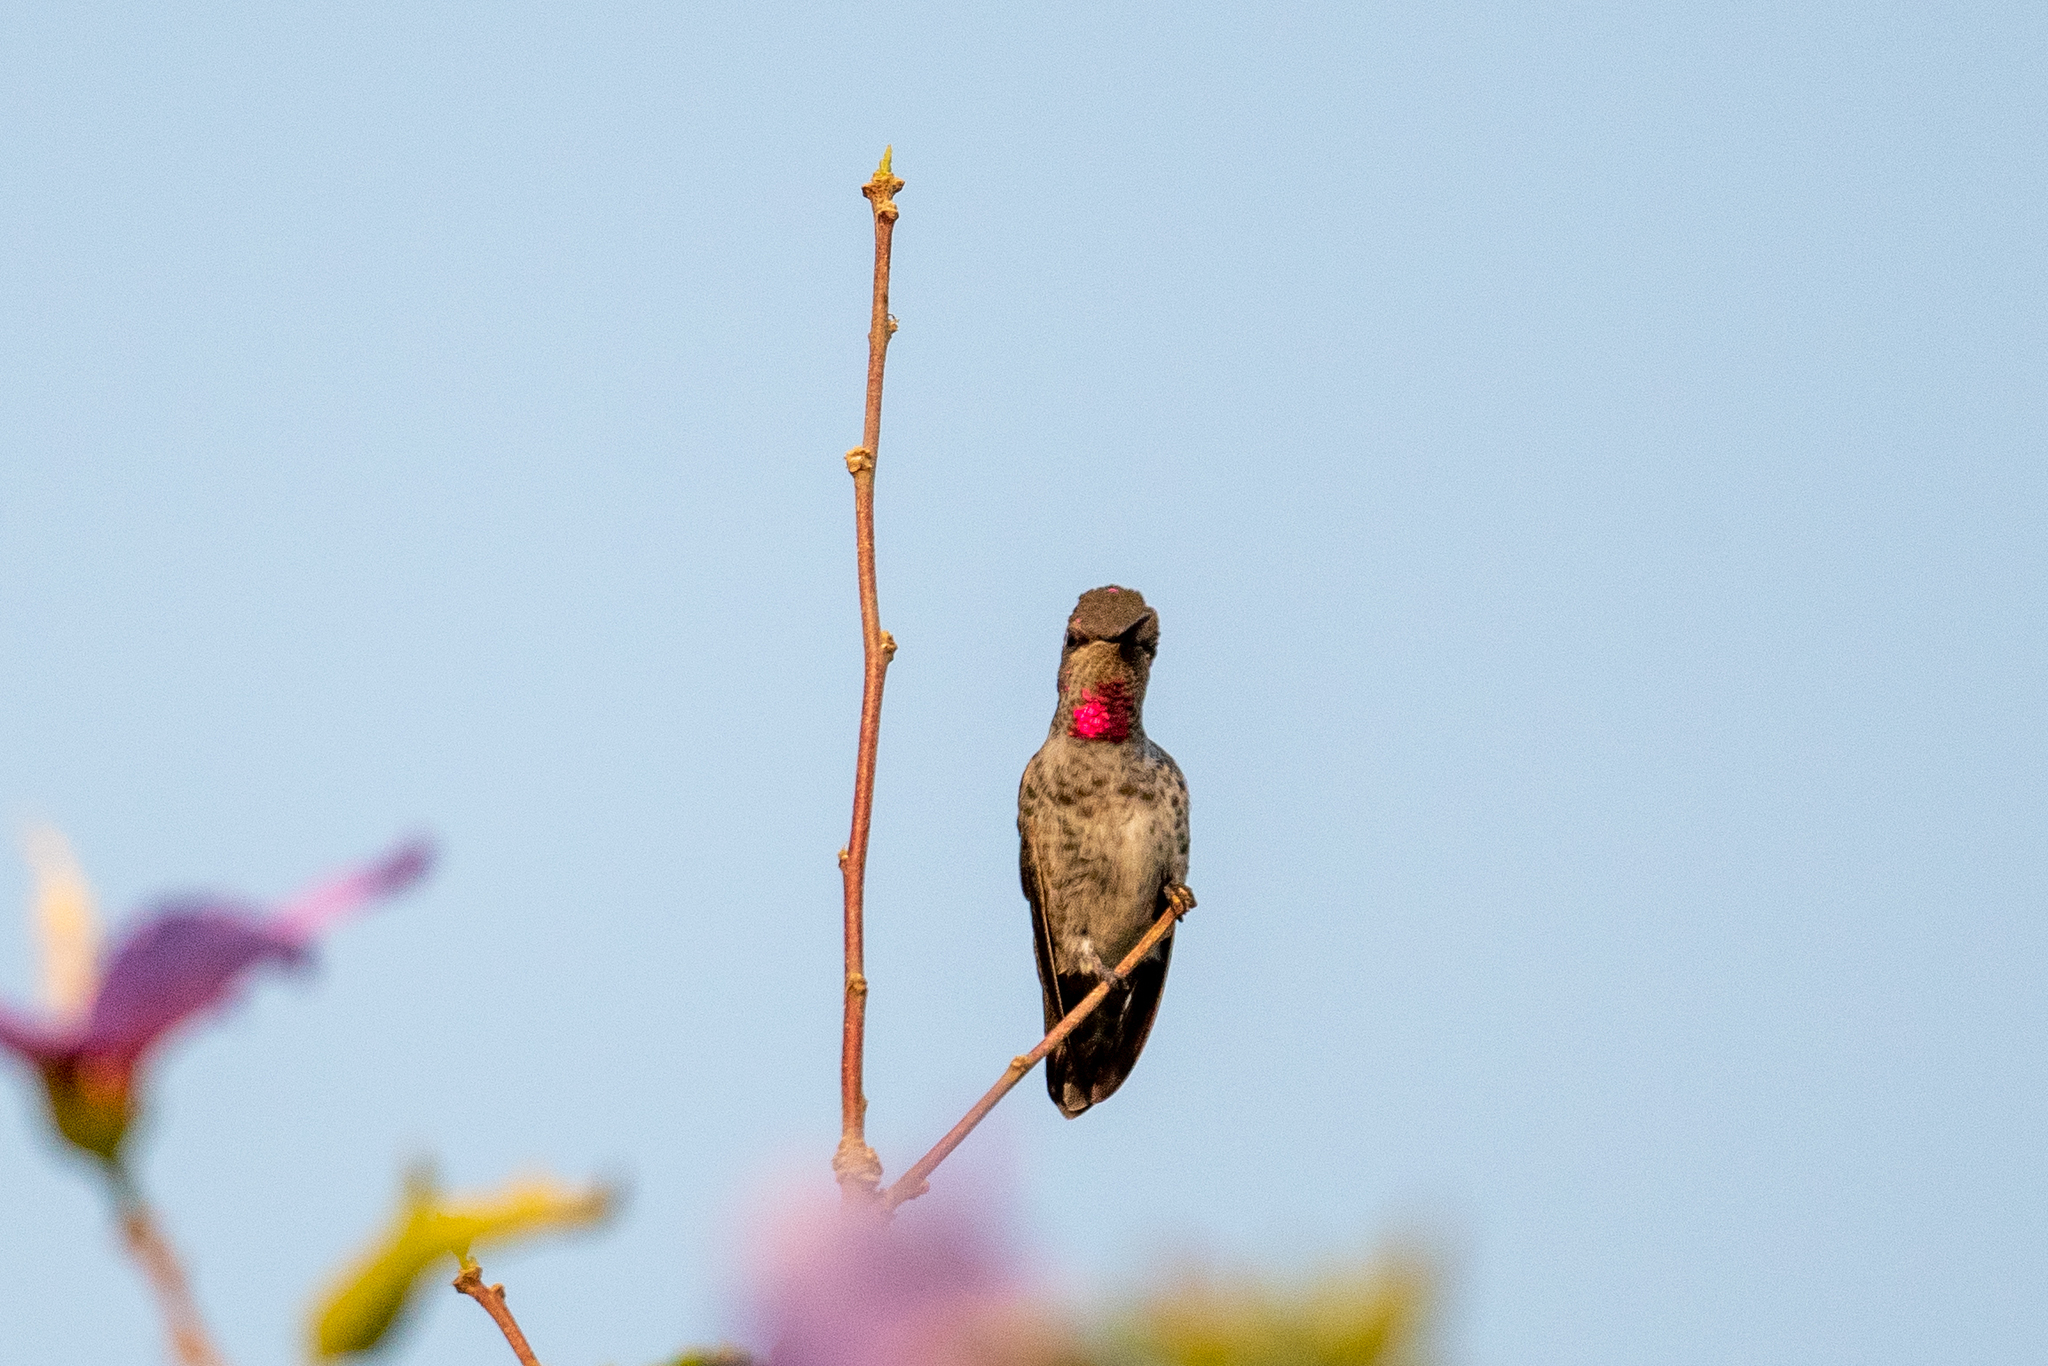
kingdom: Animalia
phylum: Chordata
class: Aves
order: Apodiformes
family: Trochilidae
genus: Calypte
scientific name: Calypte anna
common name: Anna's hummingbird
